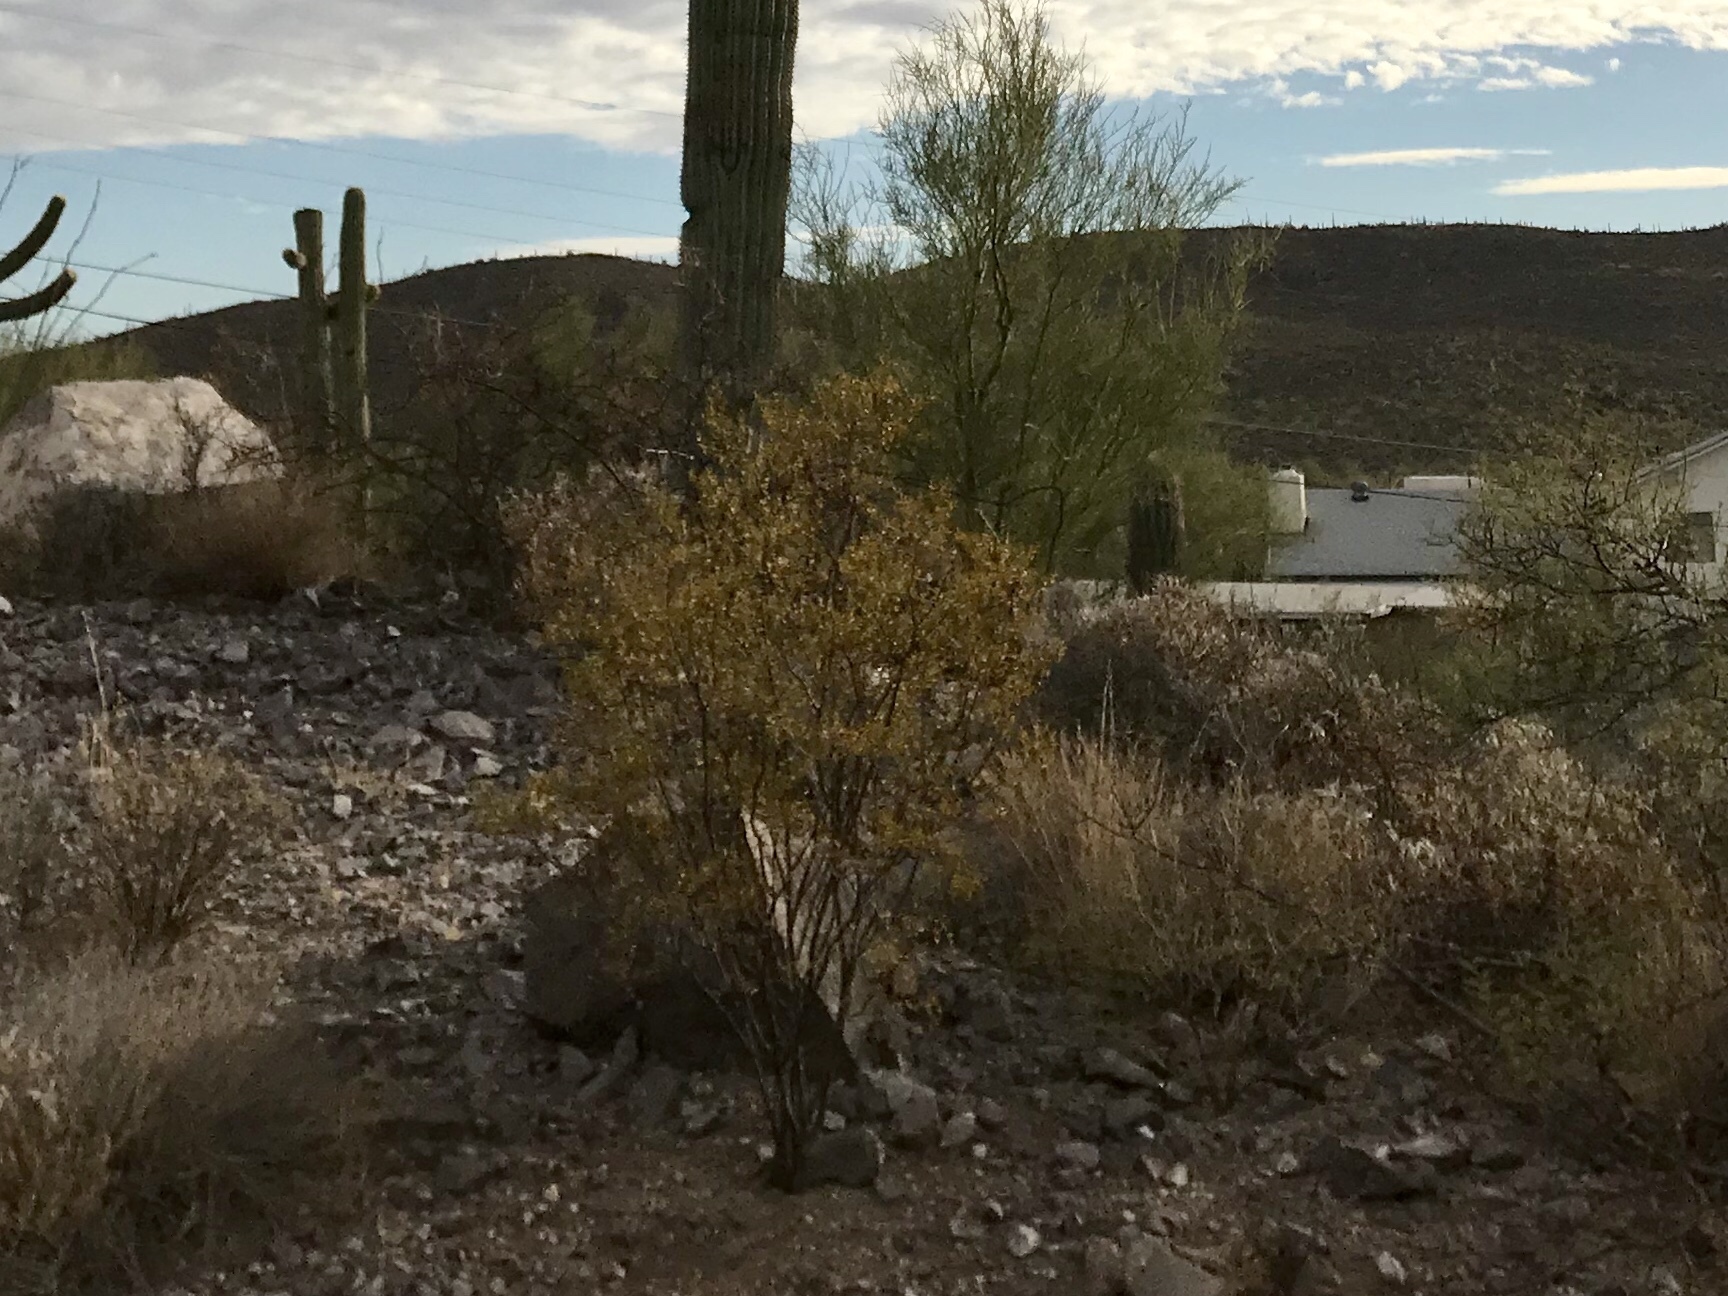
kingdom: Plantae
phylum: Tracheophyta
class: Magnoliopsida
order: Zygophyllales
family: Zygophyllaceae
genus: Larrea
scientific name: Larrea tridentata
